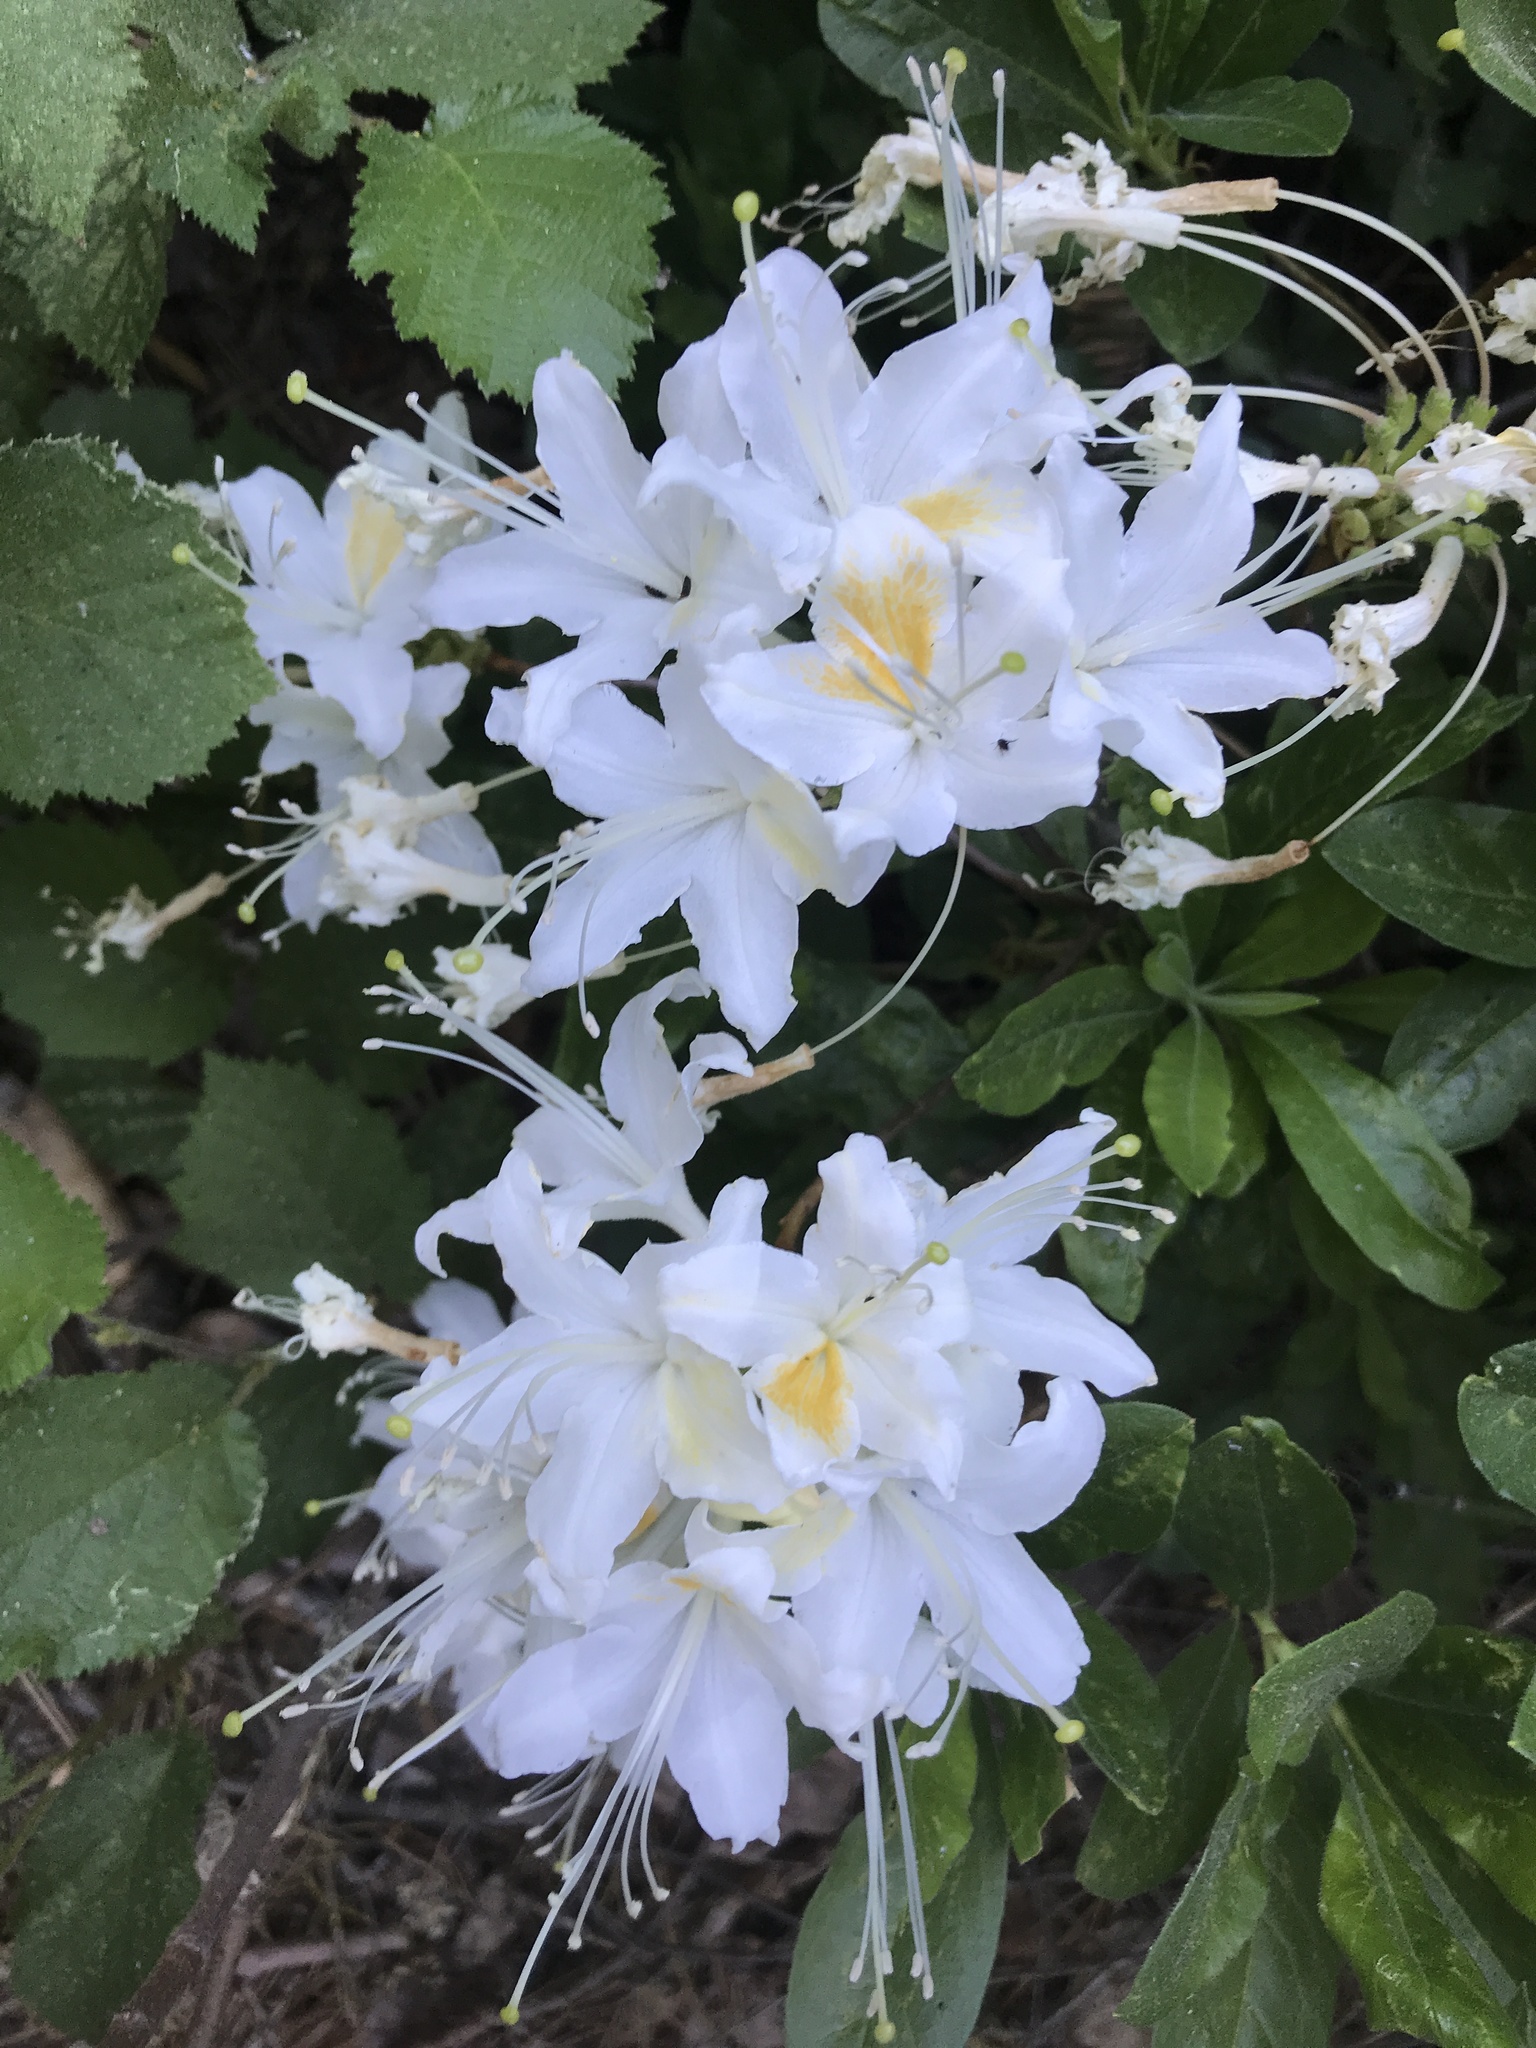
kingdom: Plantae
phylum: Tracheophyta
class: Magnoliopsida
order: Ericales
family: Ericaceae
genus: Rhododendron
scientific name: Rhododendron occidentale
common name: Western azalea
